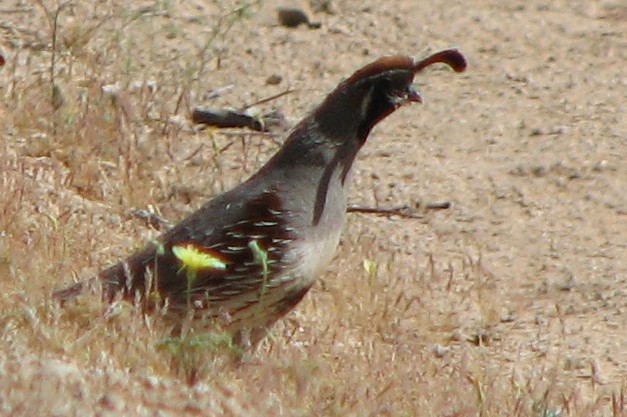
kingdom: Animalia
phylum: Chordata
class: Aves
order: Galliformes
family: Odontophoridae
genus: Callipepla
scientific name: Callipepla gambelii
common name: Gambel's quail
